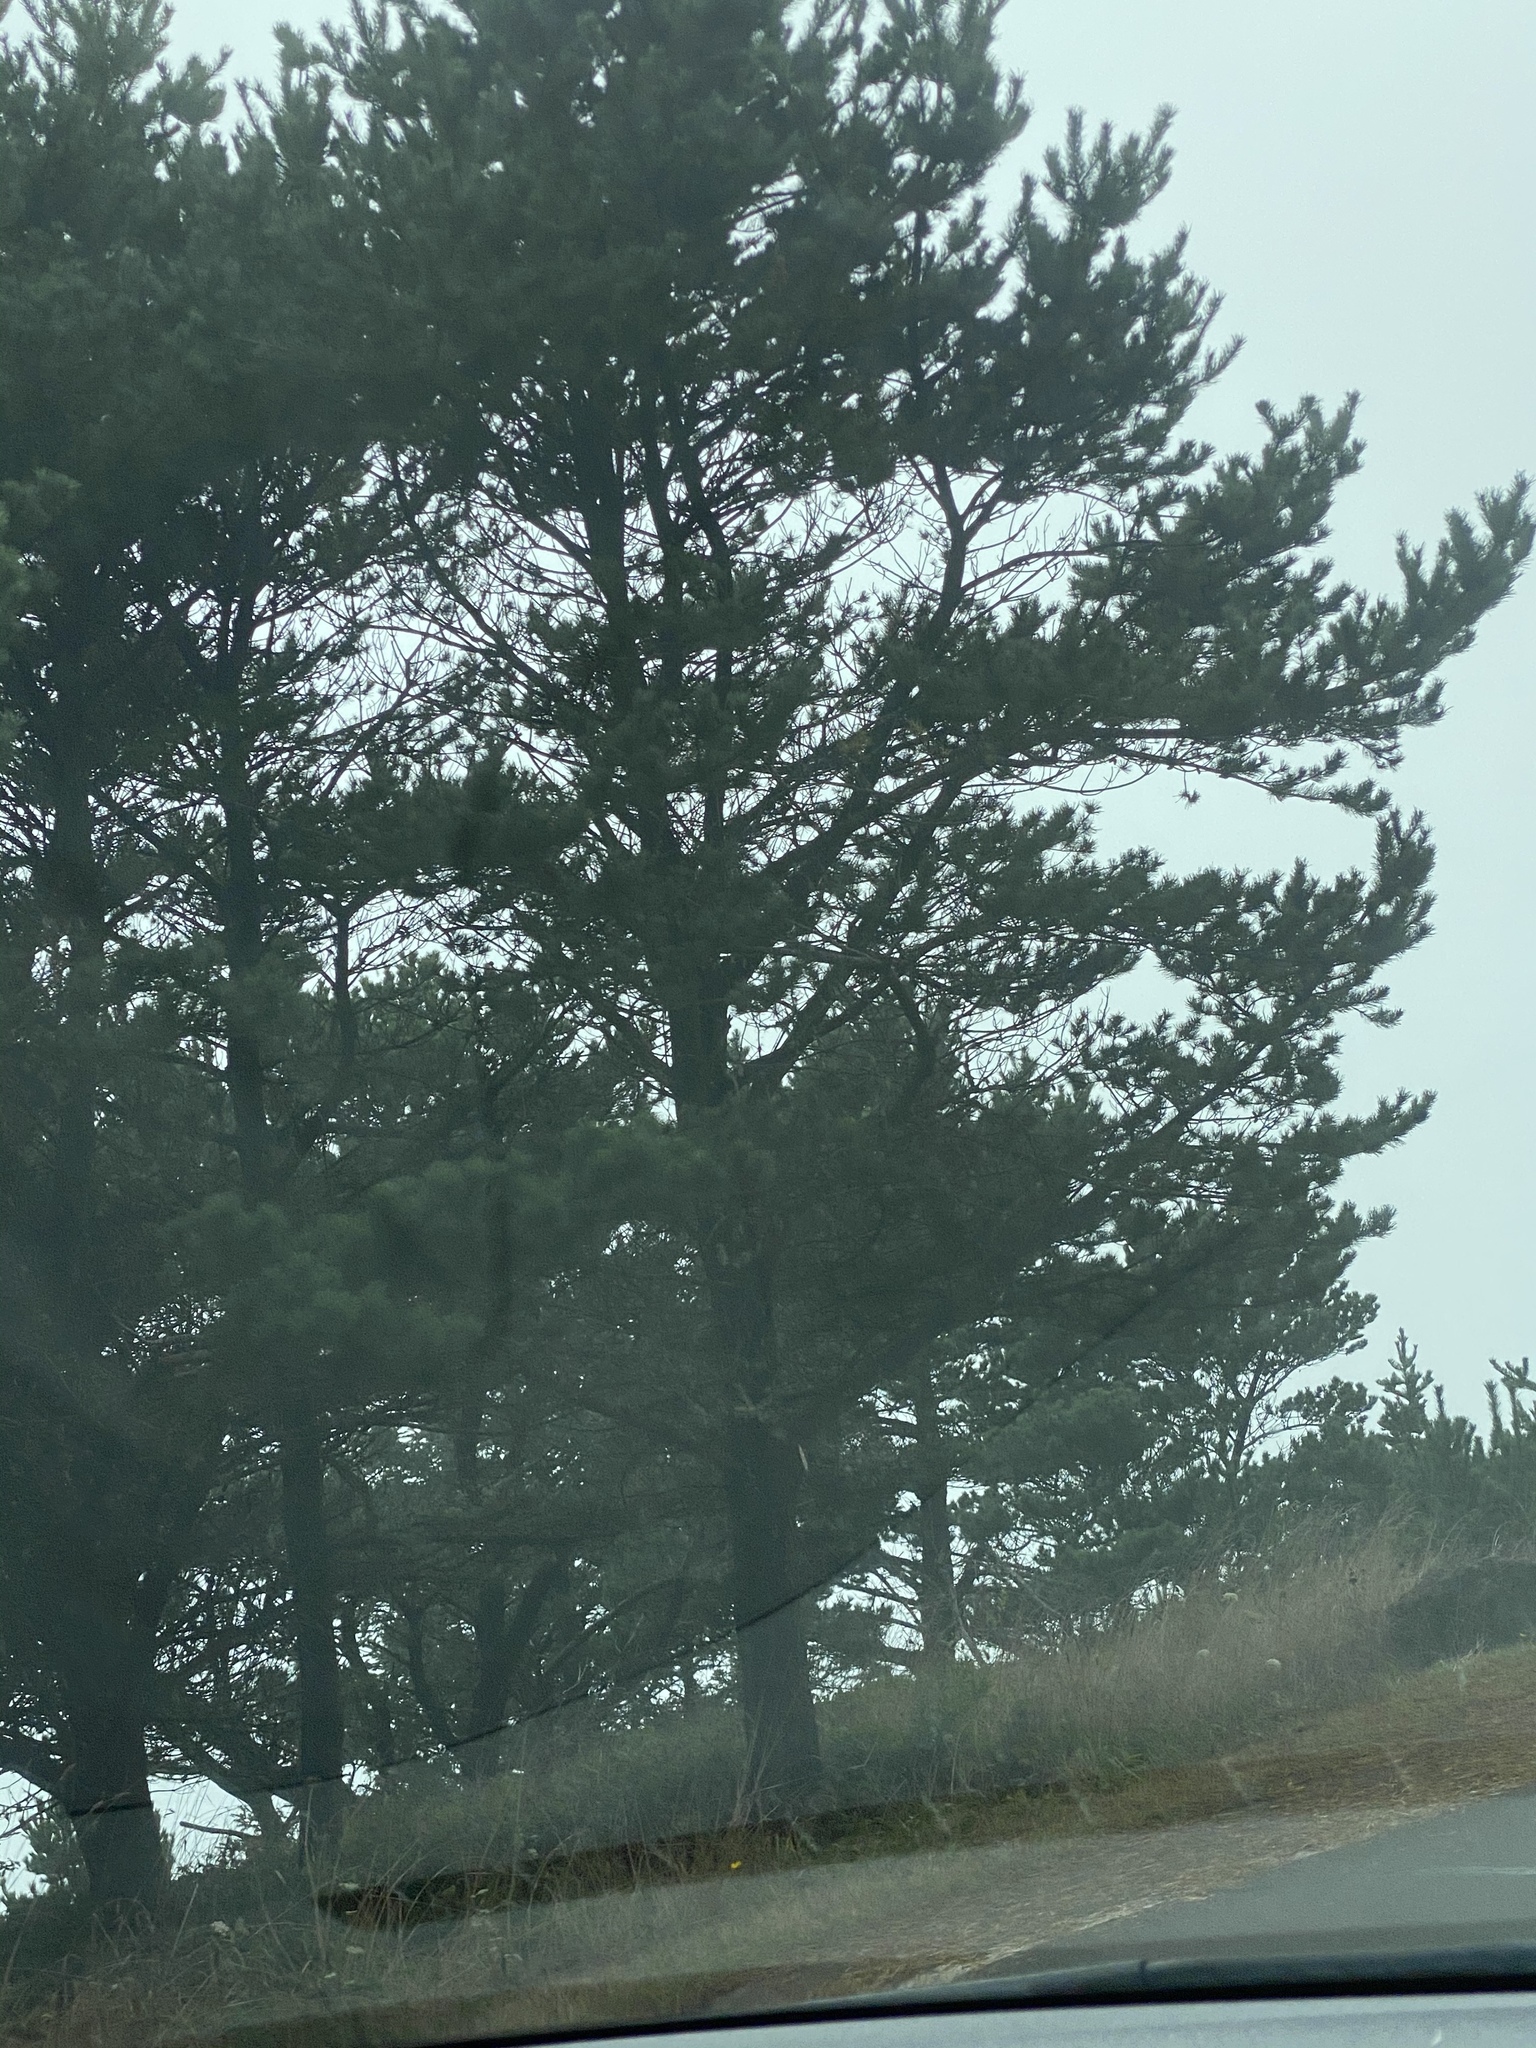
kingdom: Plantae
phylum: Tracheophyta
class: Pinopsida
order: Pinales
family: Pinaceae
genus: Pinus
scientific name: Pinus contorta
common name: Lodgepole pine
